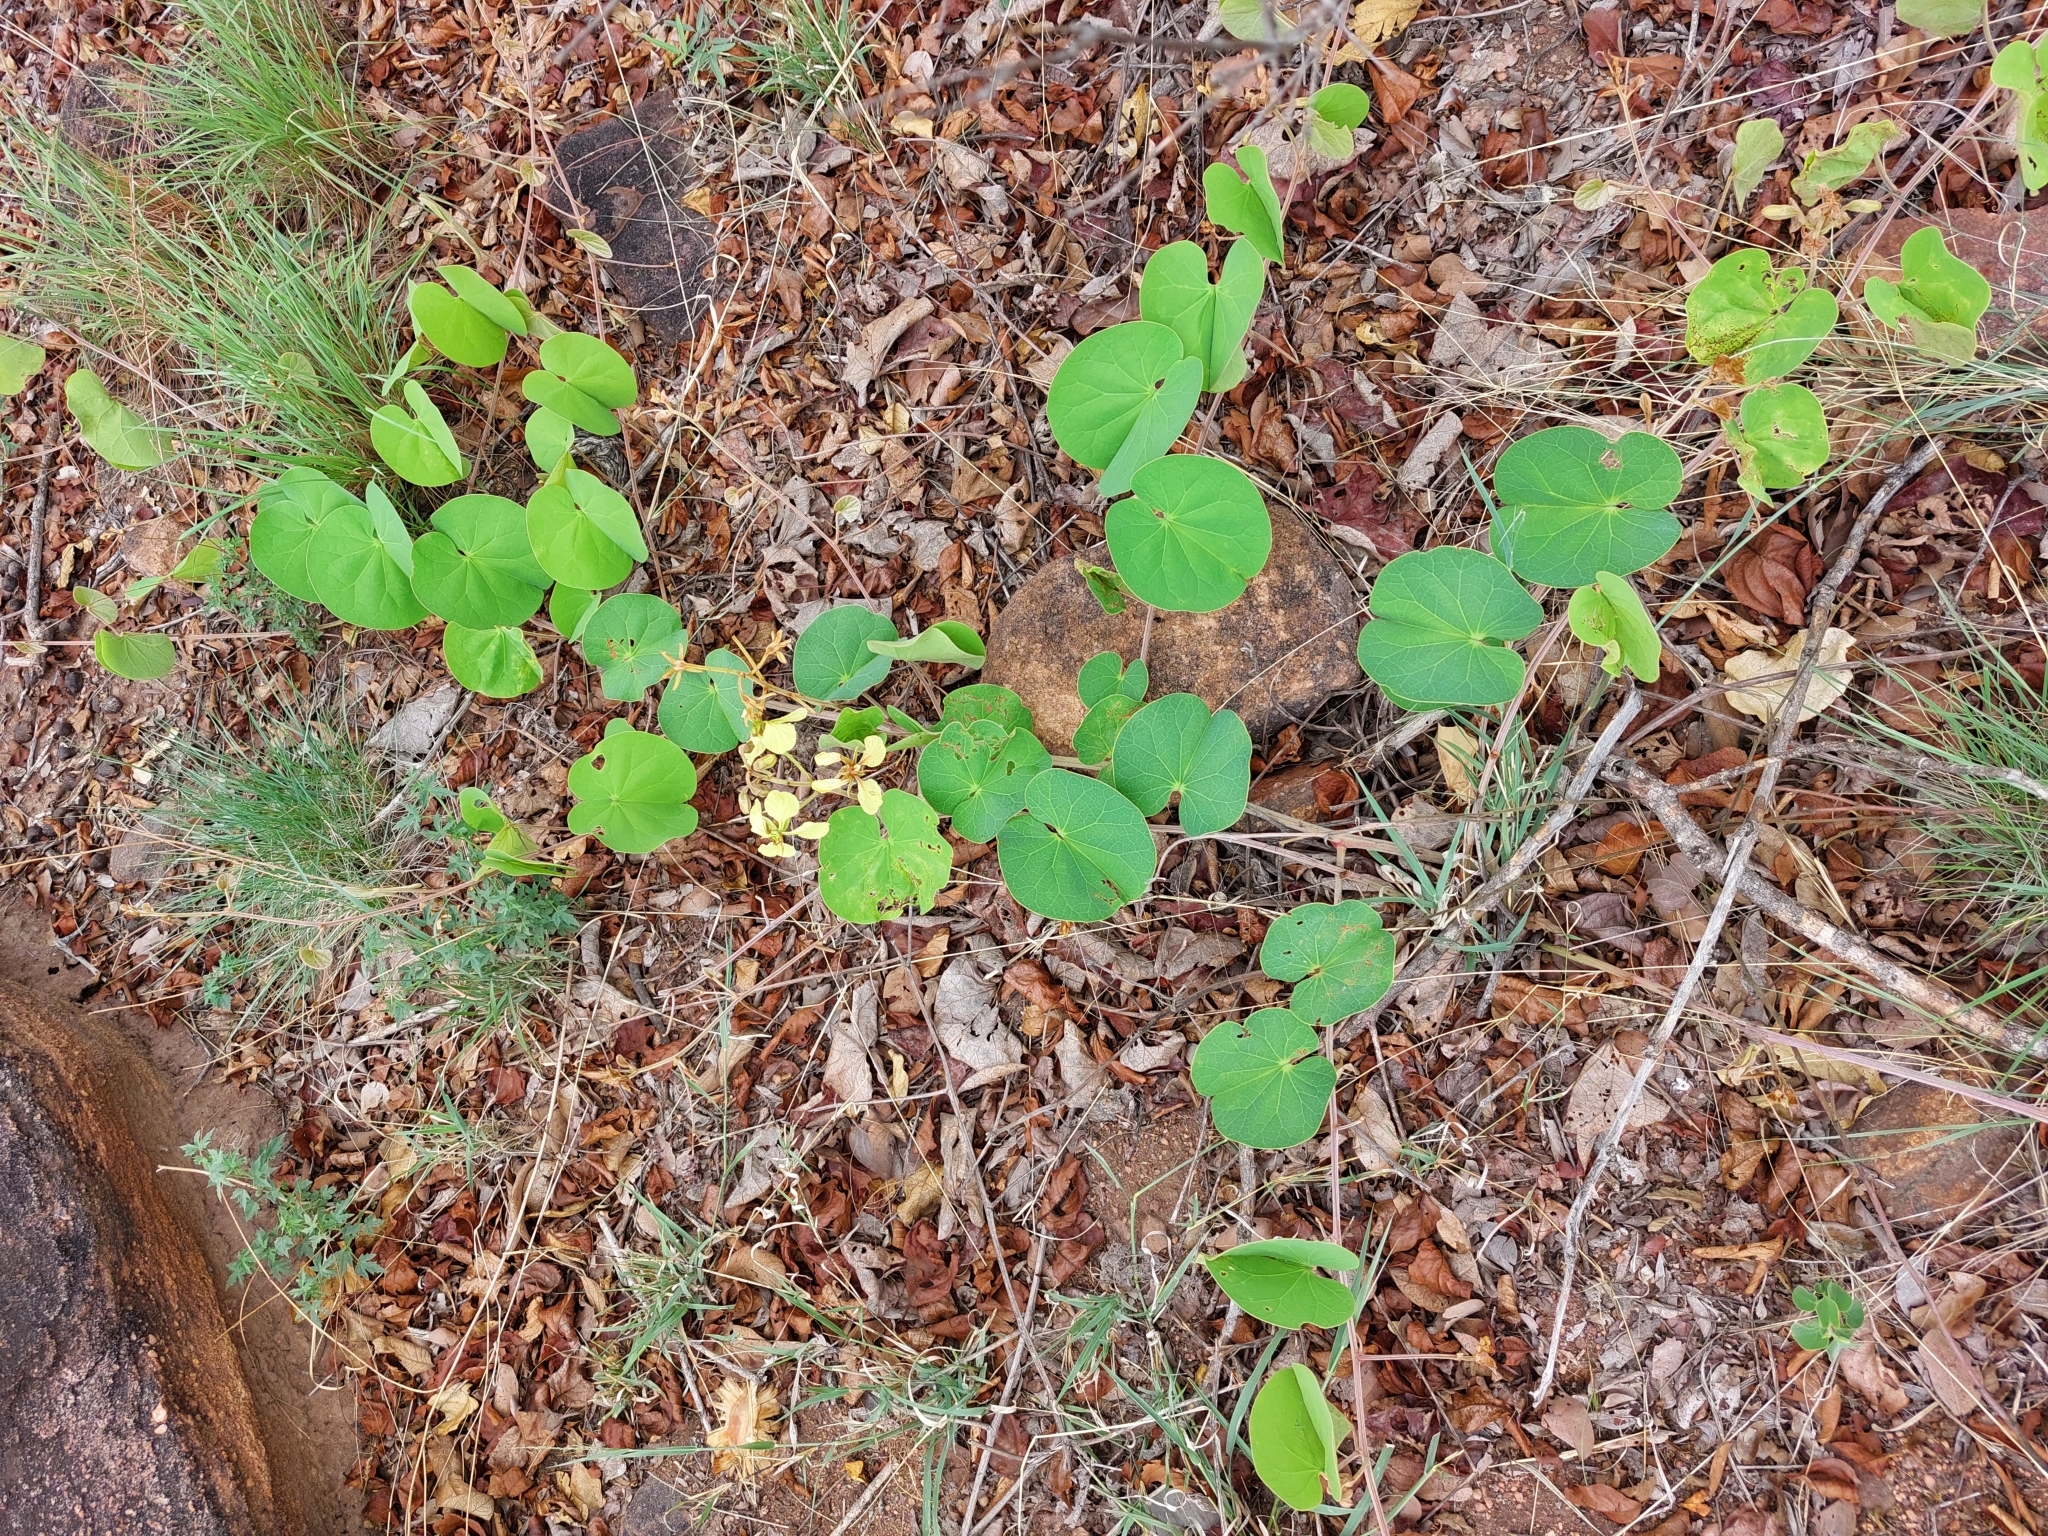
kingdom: Plantae
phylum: Tracheophyta
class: Magnoliopsida
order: Fabales
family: Fabaceae
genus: Tylosema
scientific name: Tylosema fassoglense
